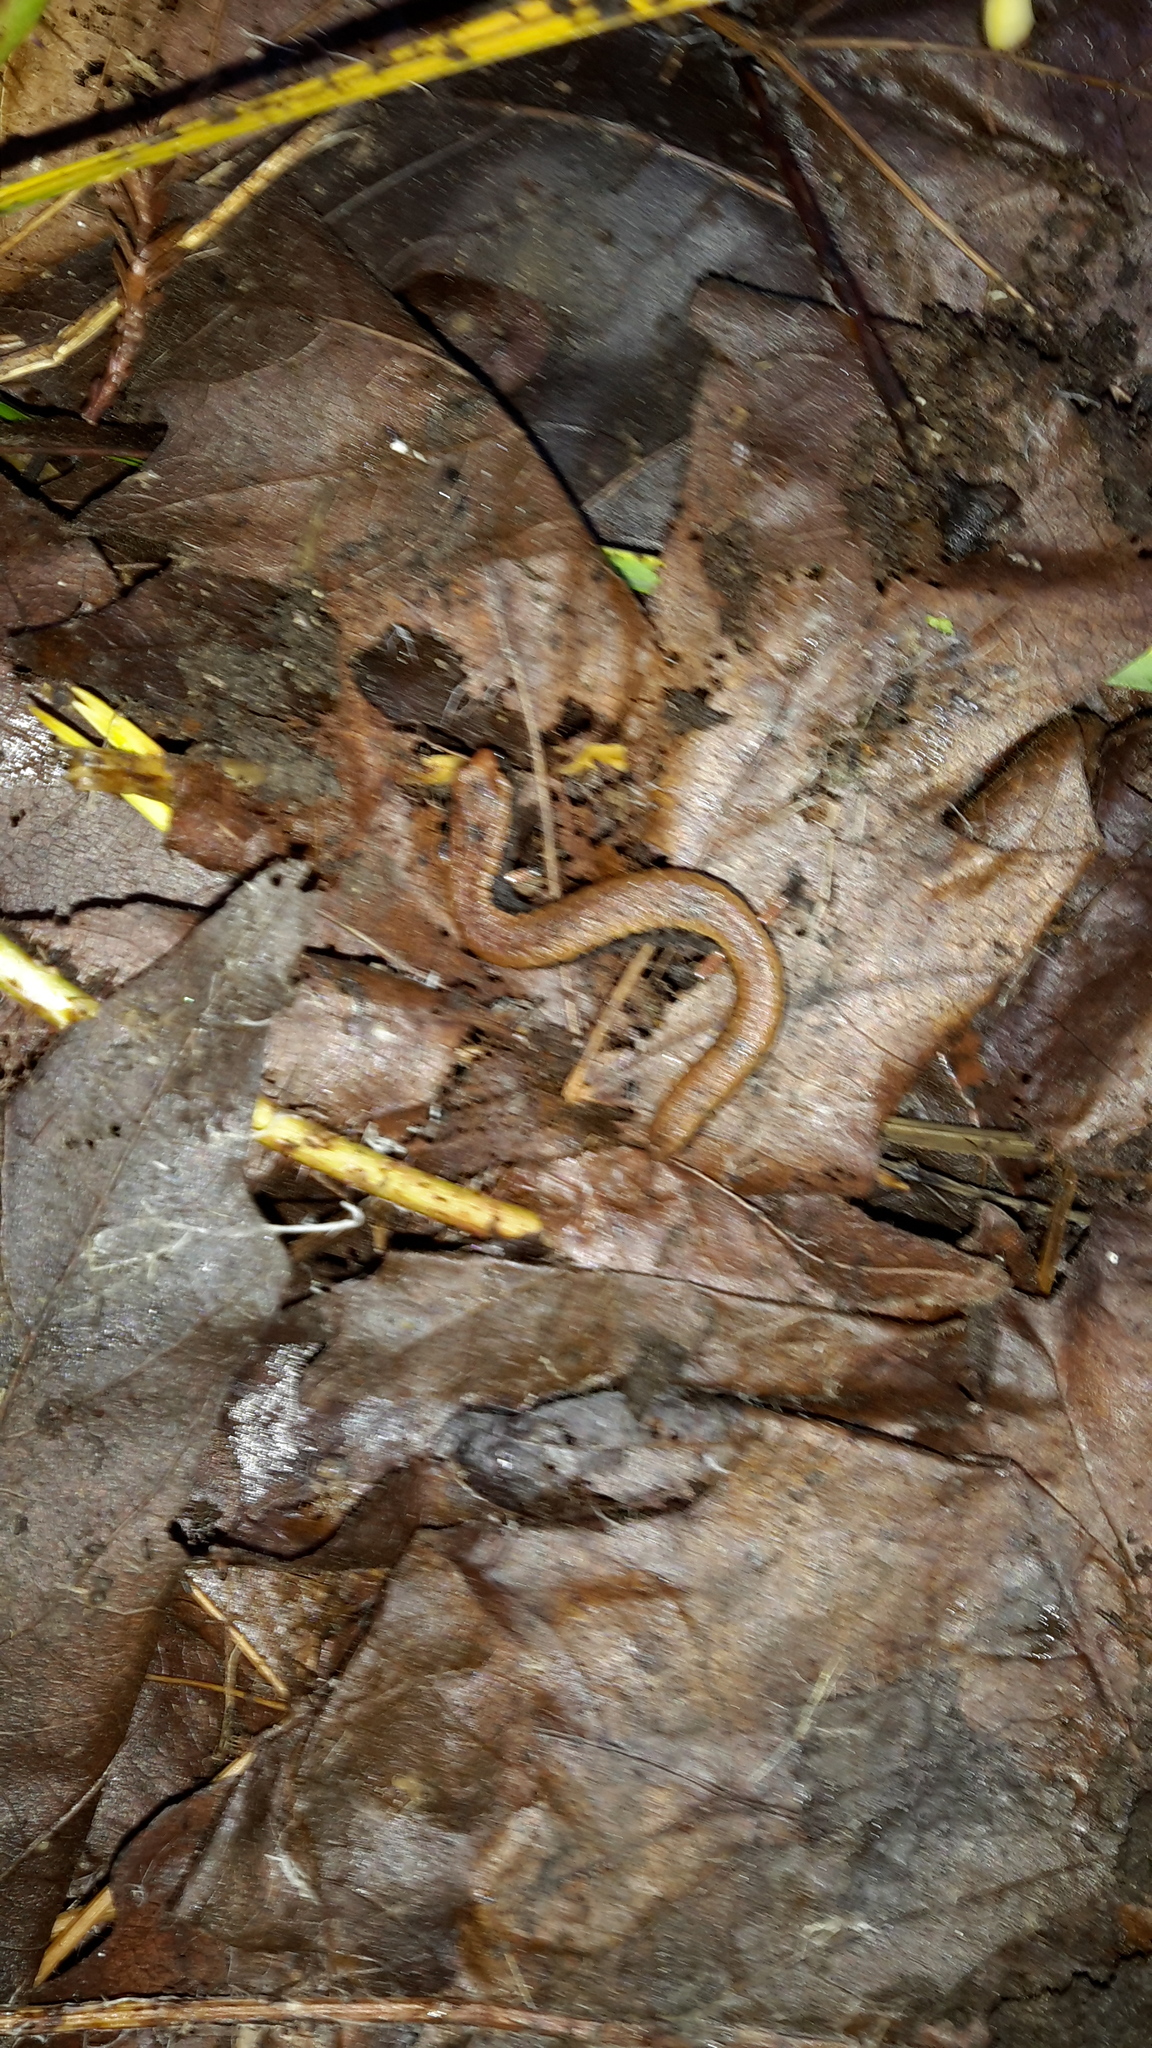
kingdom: Animalia
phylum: Chordata
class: Amphibia
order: Caudata
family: Plethodontidae
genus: Batrachoseps
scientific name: Batrachoseps attenuatus
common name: California slender salamander
